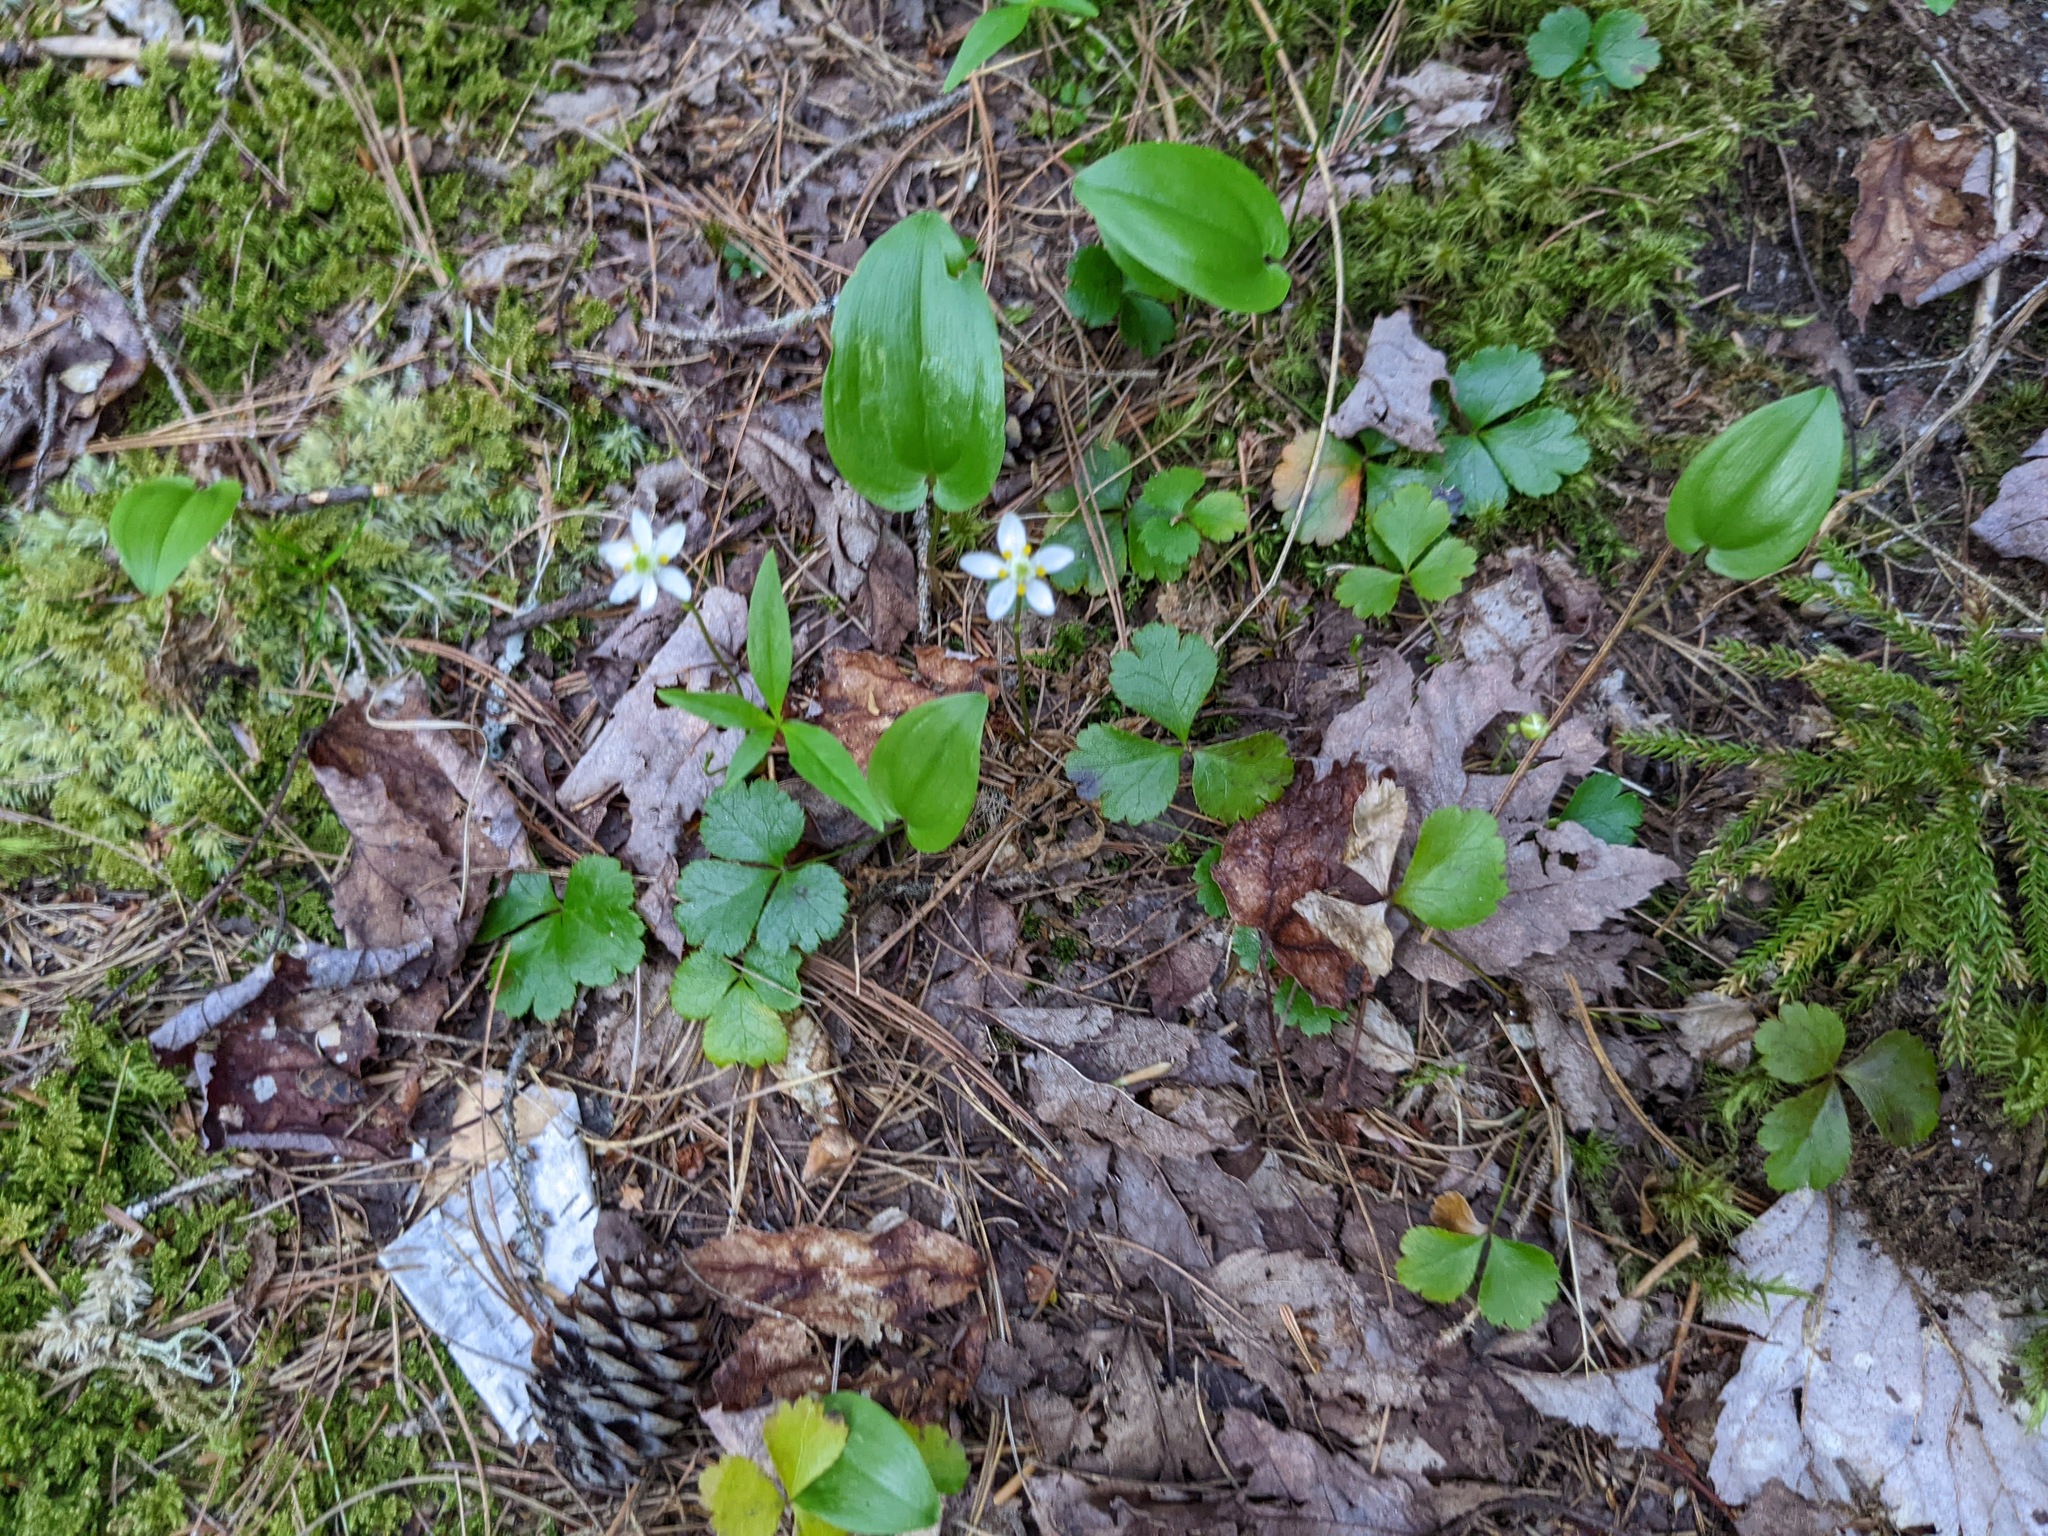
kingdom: Plantae
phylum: Tracheophyta
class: Magnoliopsida
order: Ranunculales
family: Ranunculaceae
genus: Coptis
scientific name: Coptis trifolia
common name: Canker-root
